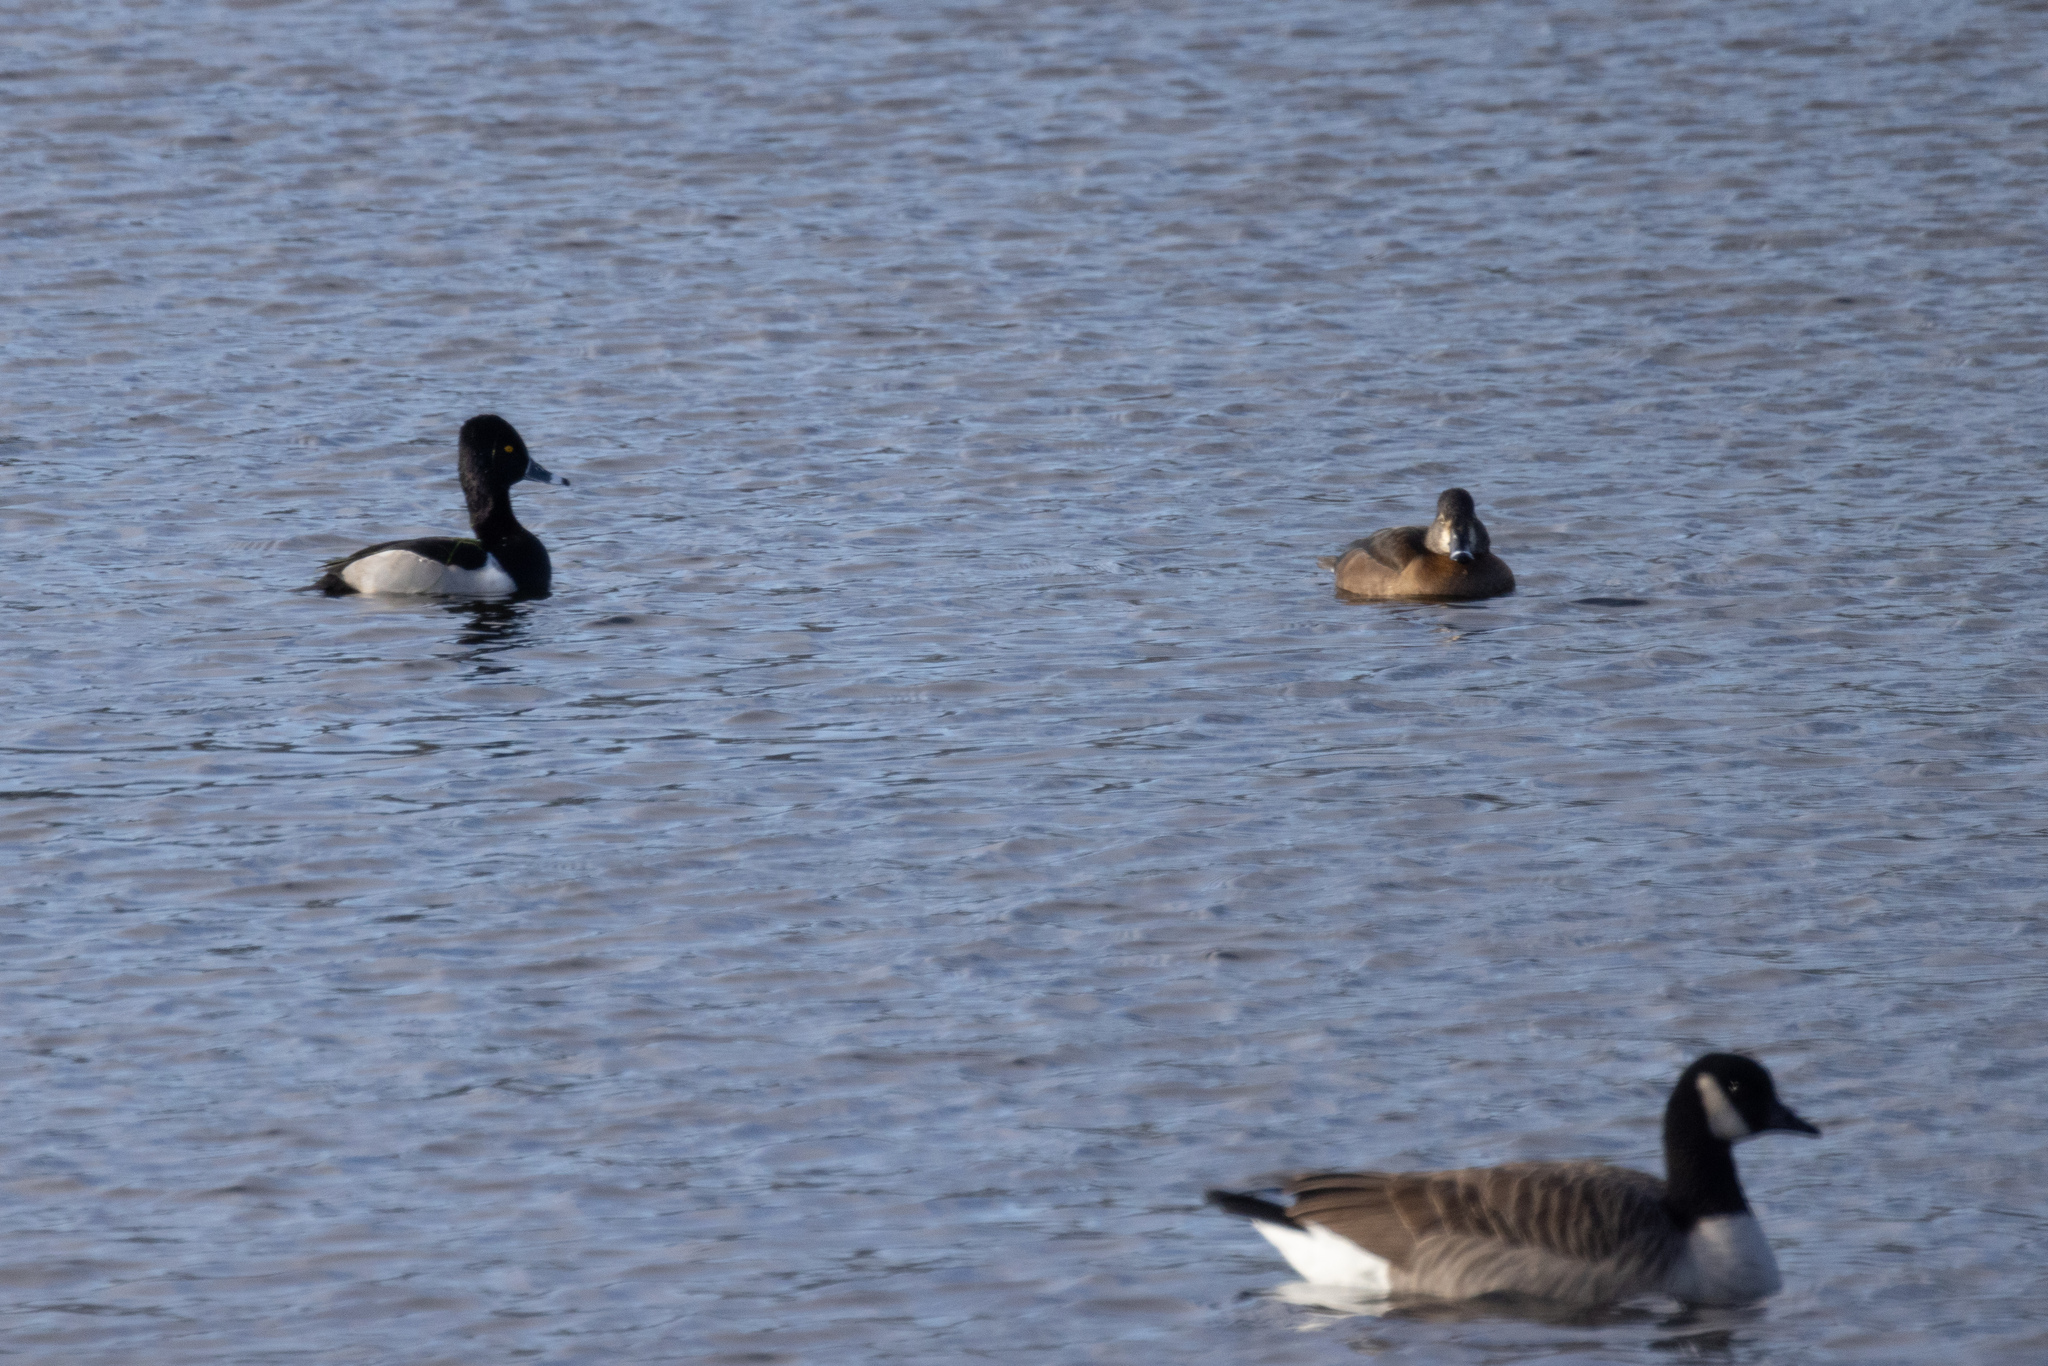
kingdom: Animalia
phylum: Chordata
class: Aves
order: Anseriformes
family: Anatidae
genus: Aythya
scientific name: Aythya collaris
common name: Ring-necked duck
